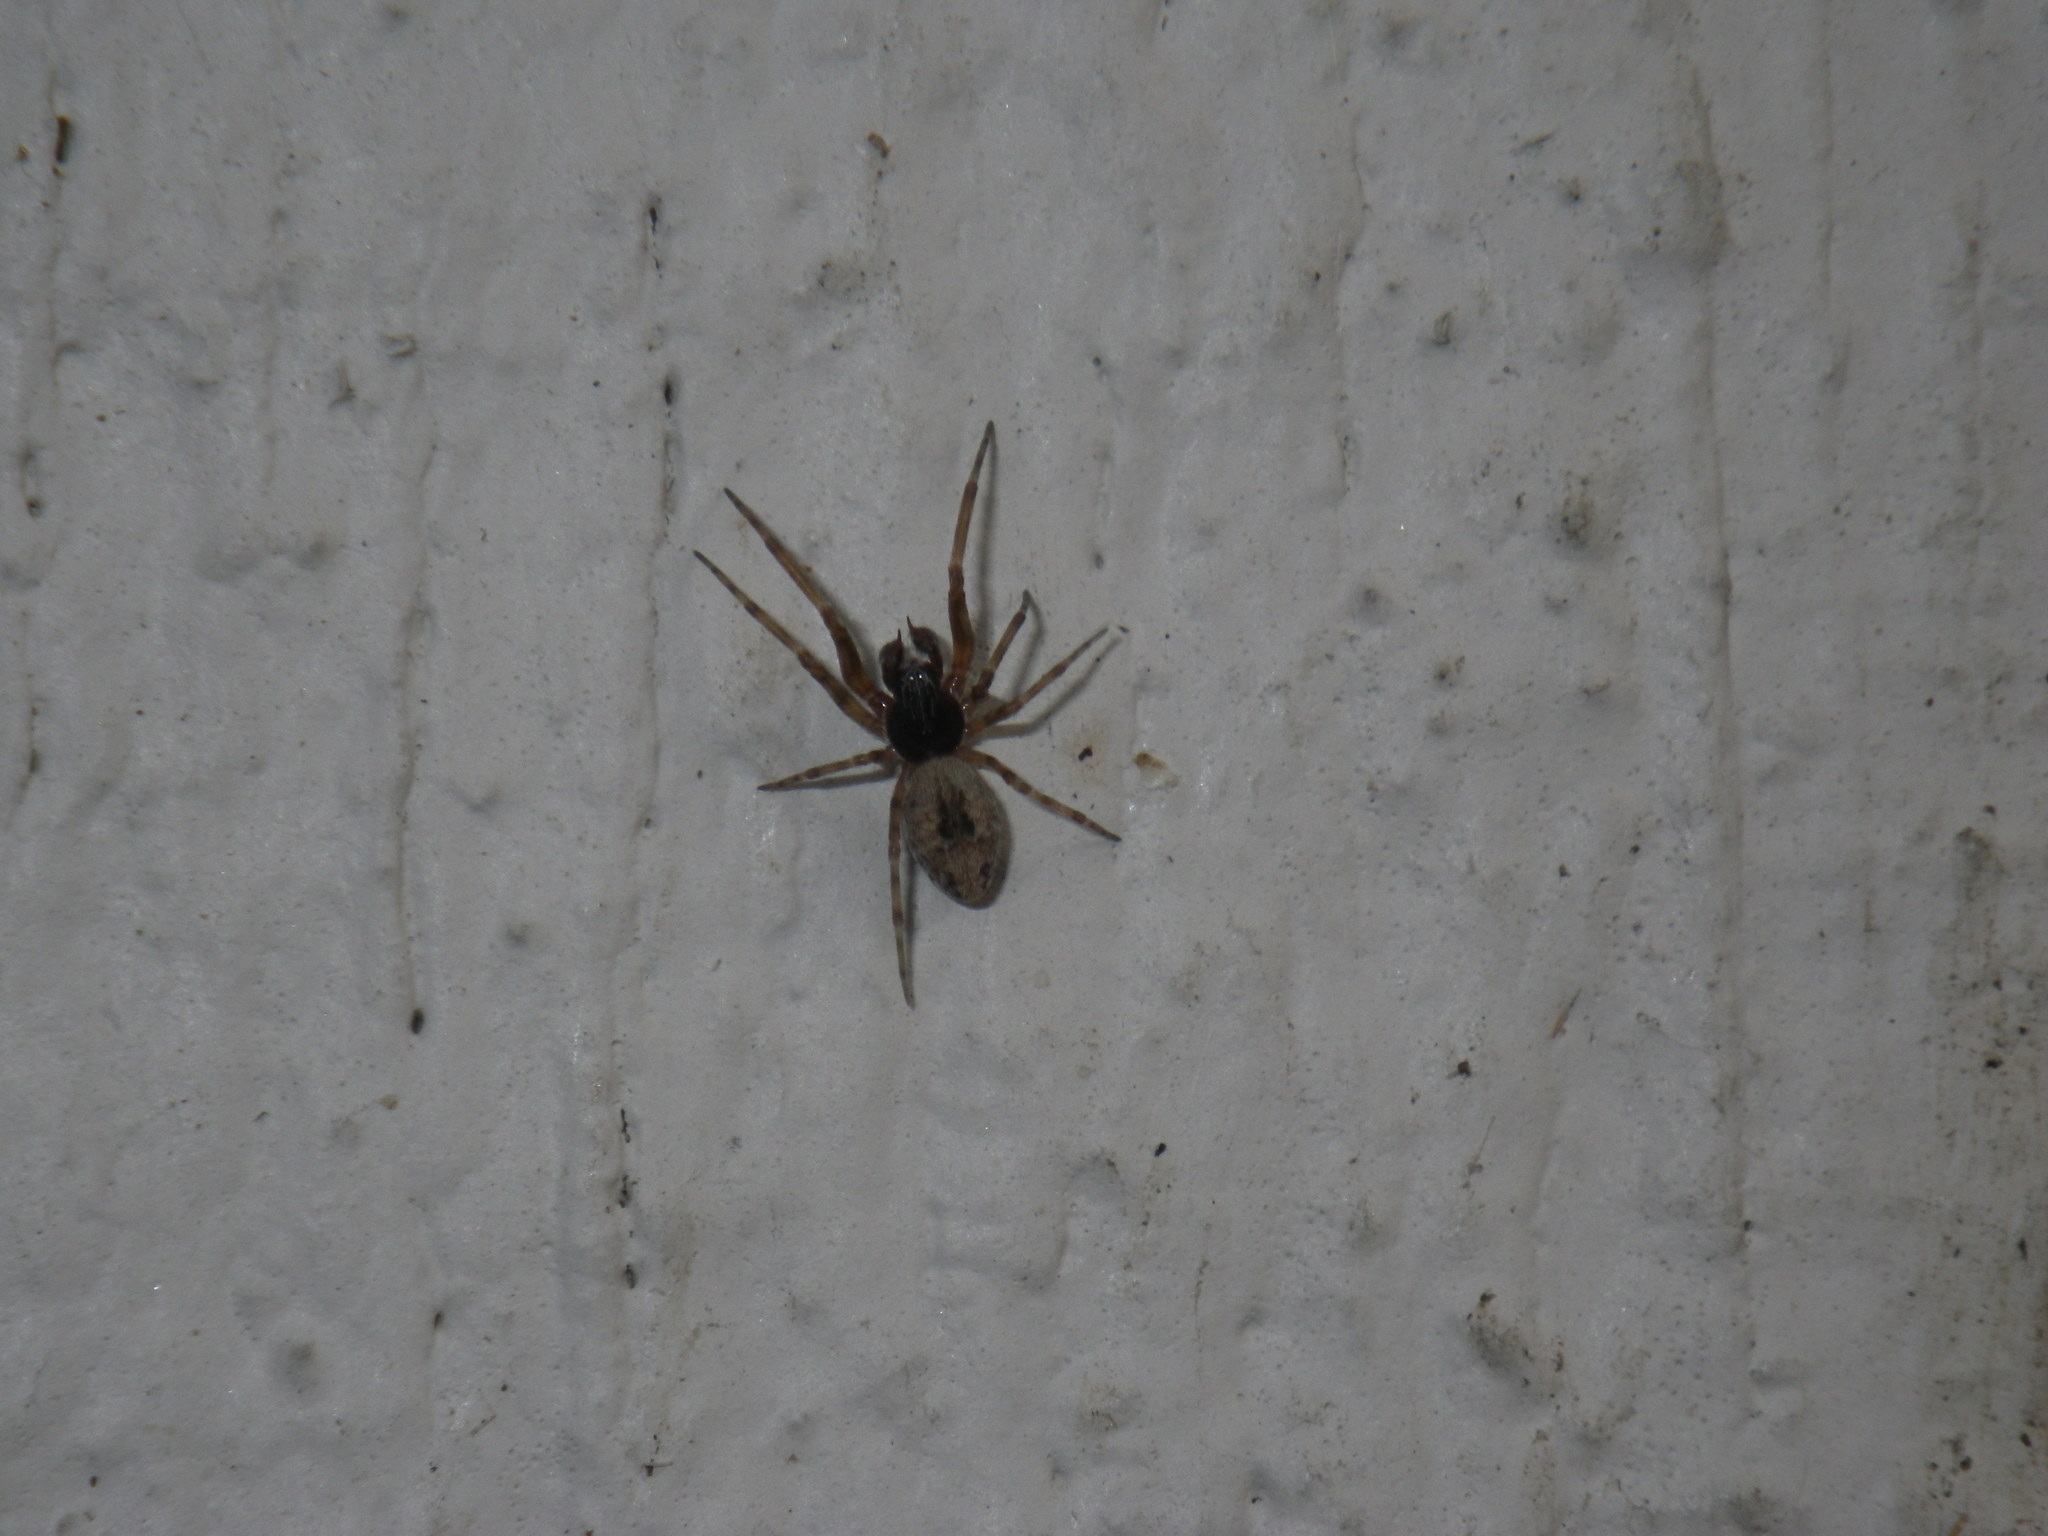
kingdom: Animalia
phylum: Arthropoda
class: Arachnida
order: Araneae
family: Dictynidae
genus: Dictyna
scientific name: Dictyna calcarata
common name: Mesh weaver
